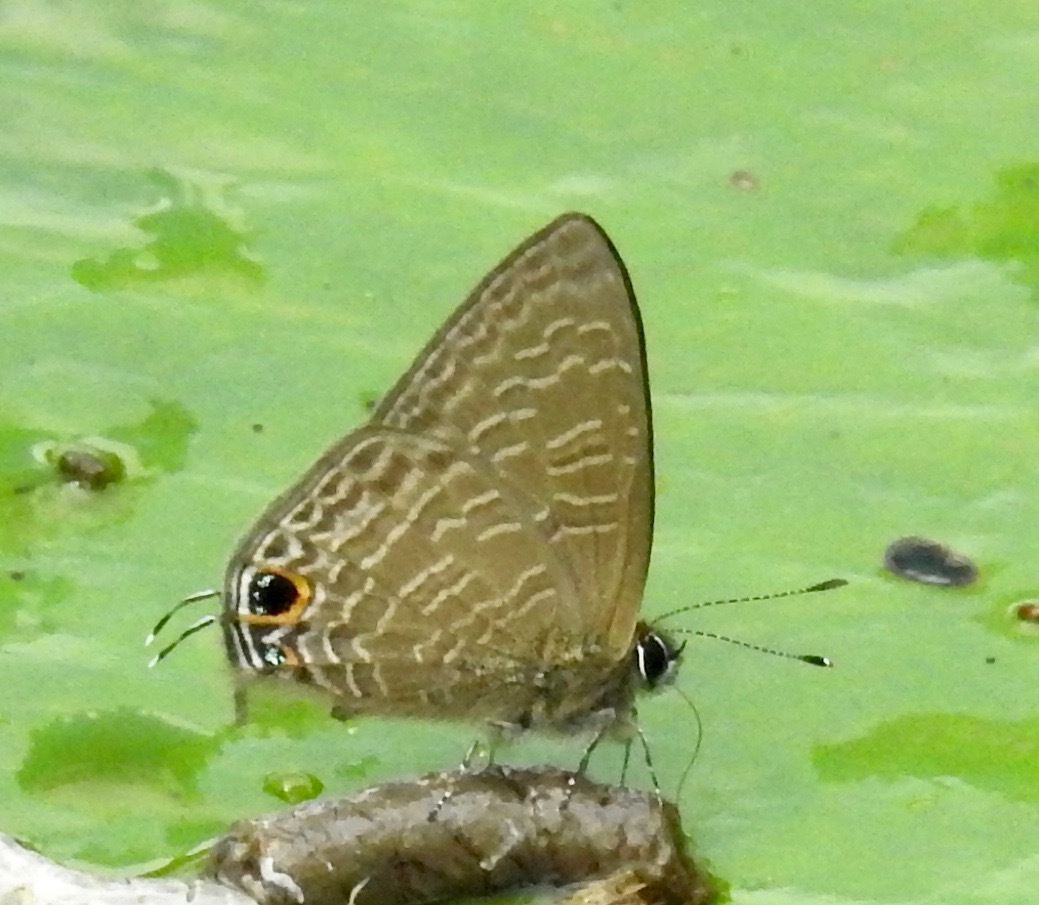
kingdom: Animalia
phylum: Arthropoda
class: Insecta
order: Lepidoptera
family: Lycaenidae
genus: Ionolyce
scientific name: Ionolyce helicon
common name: Pointed line blue
